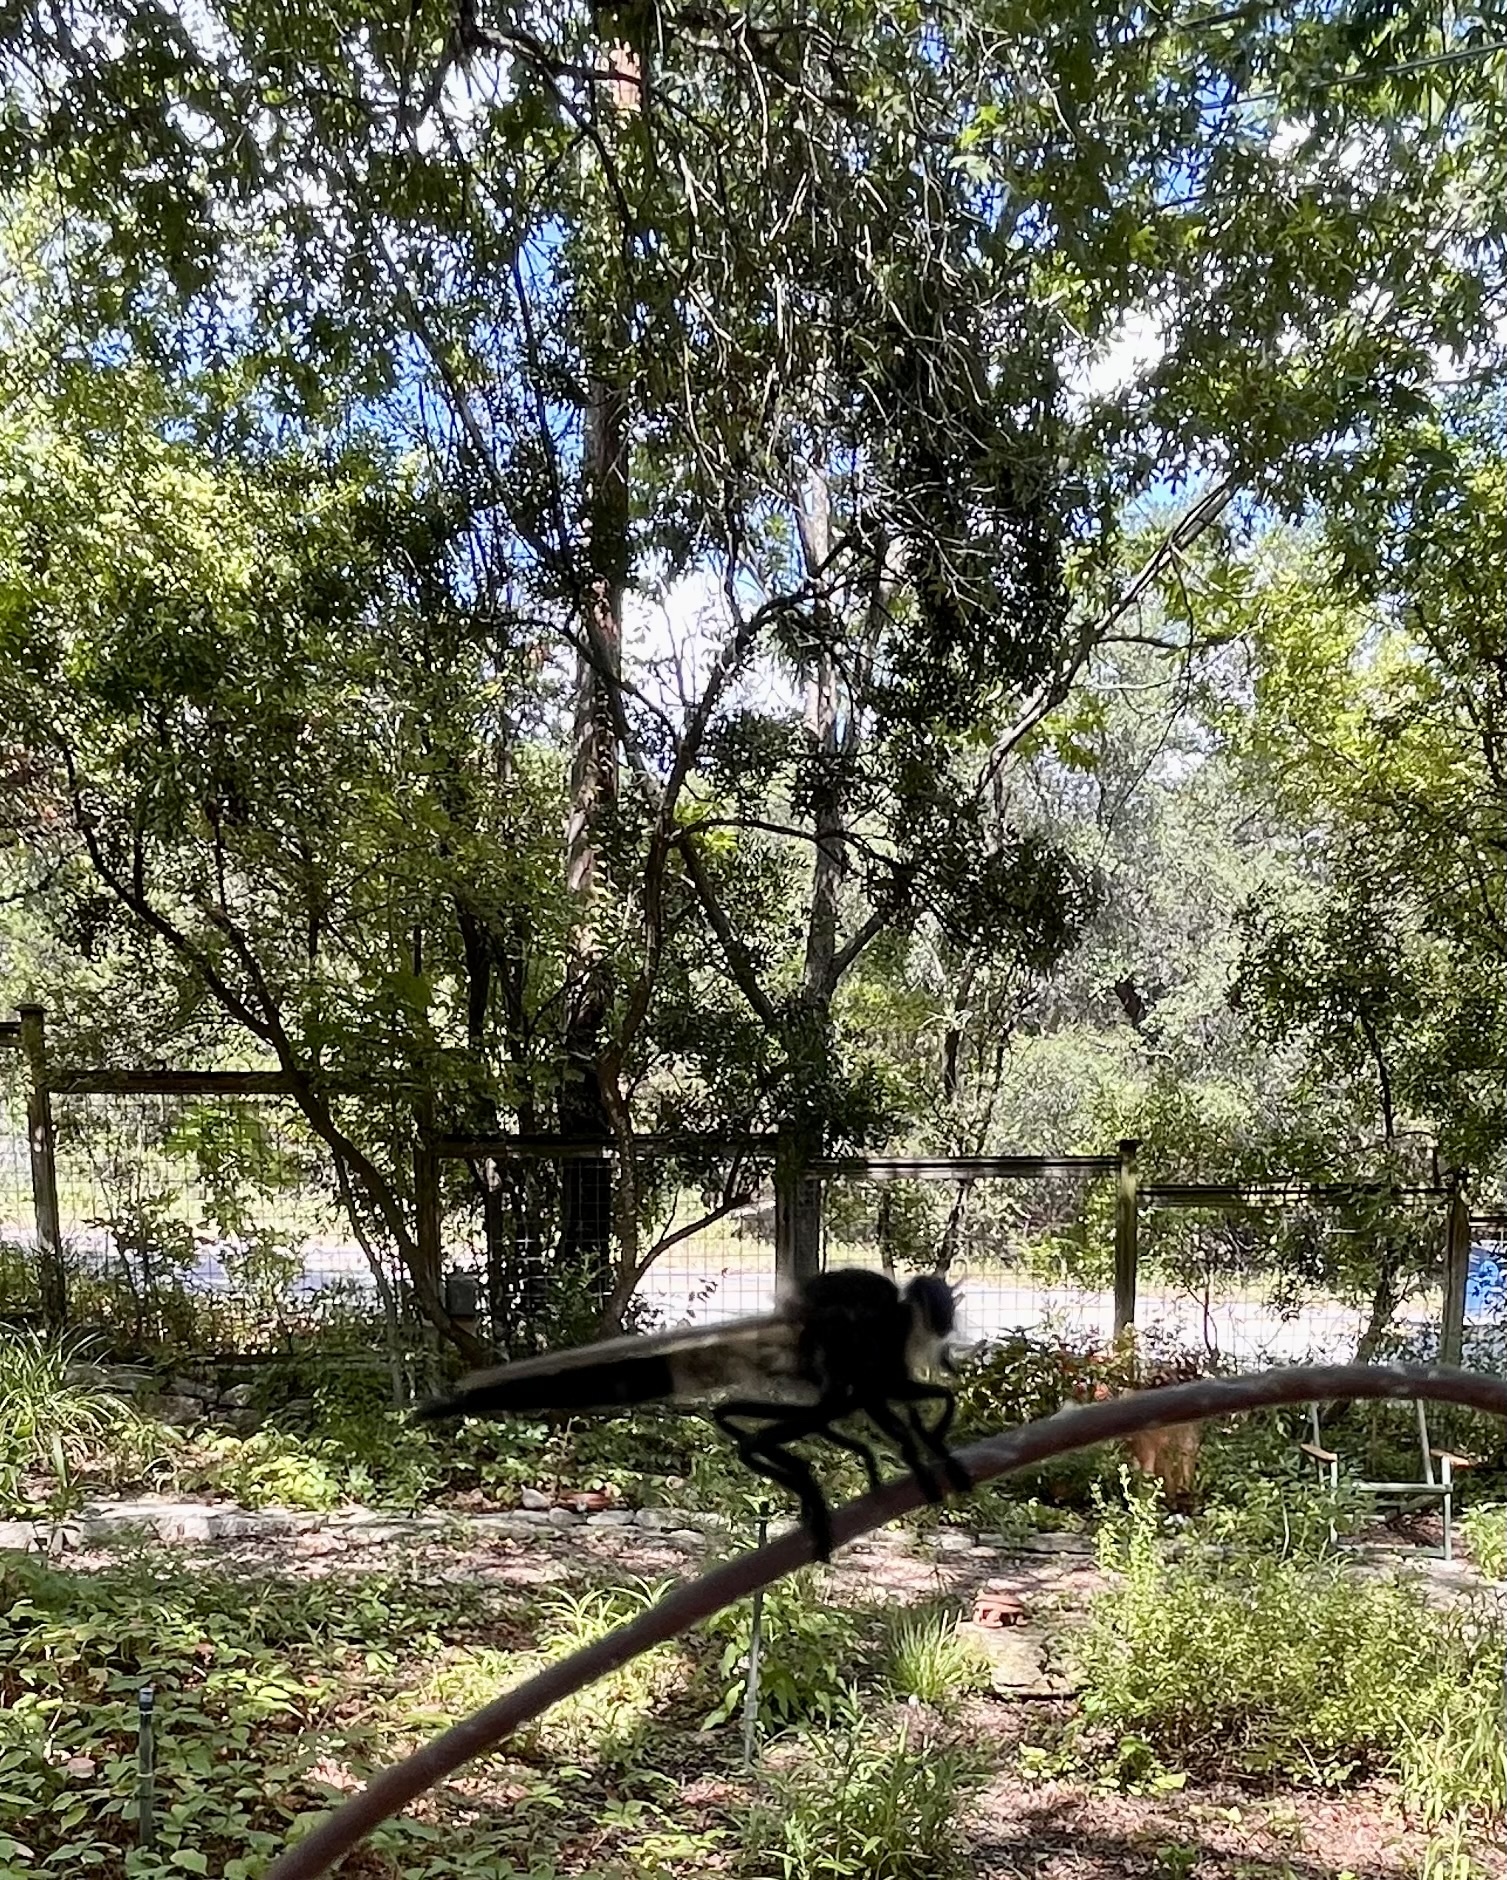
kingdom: Animalia
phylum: Arthropoda
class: Insecta
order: Diptera
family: Asilidae
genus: Promachus
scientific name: Promachus painteri
